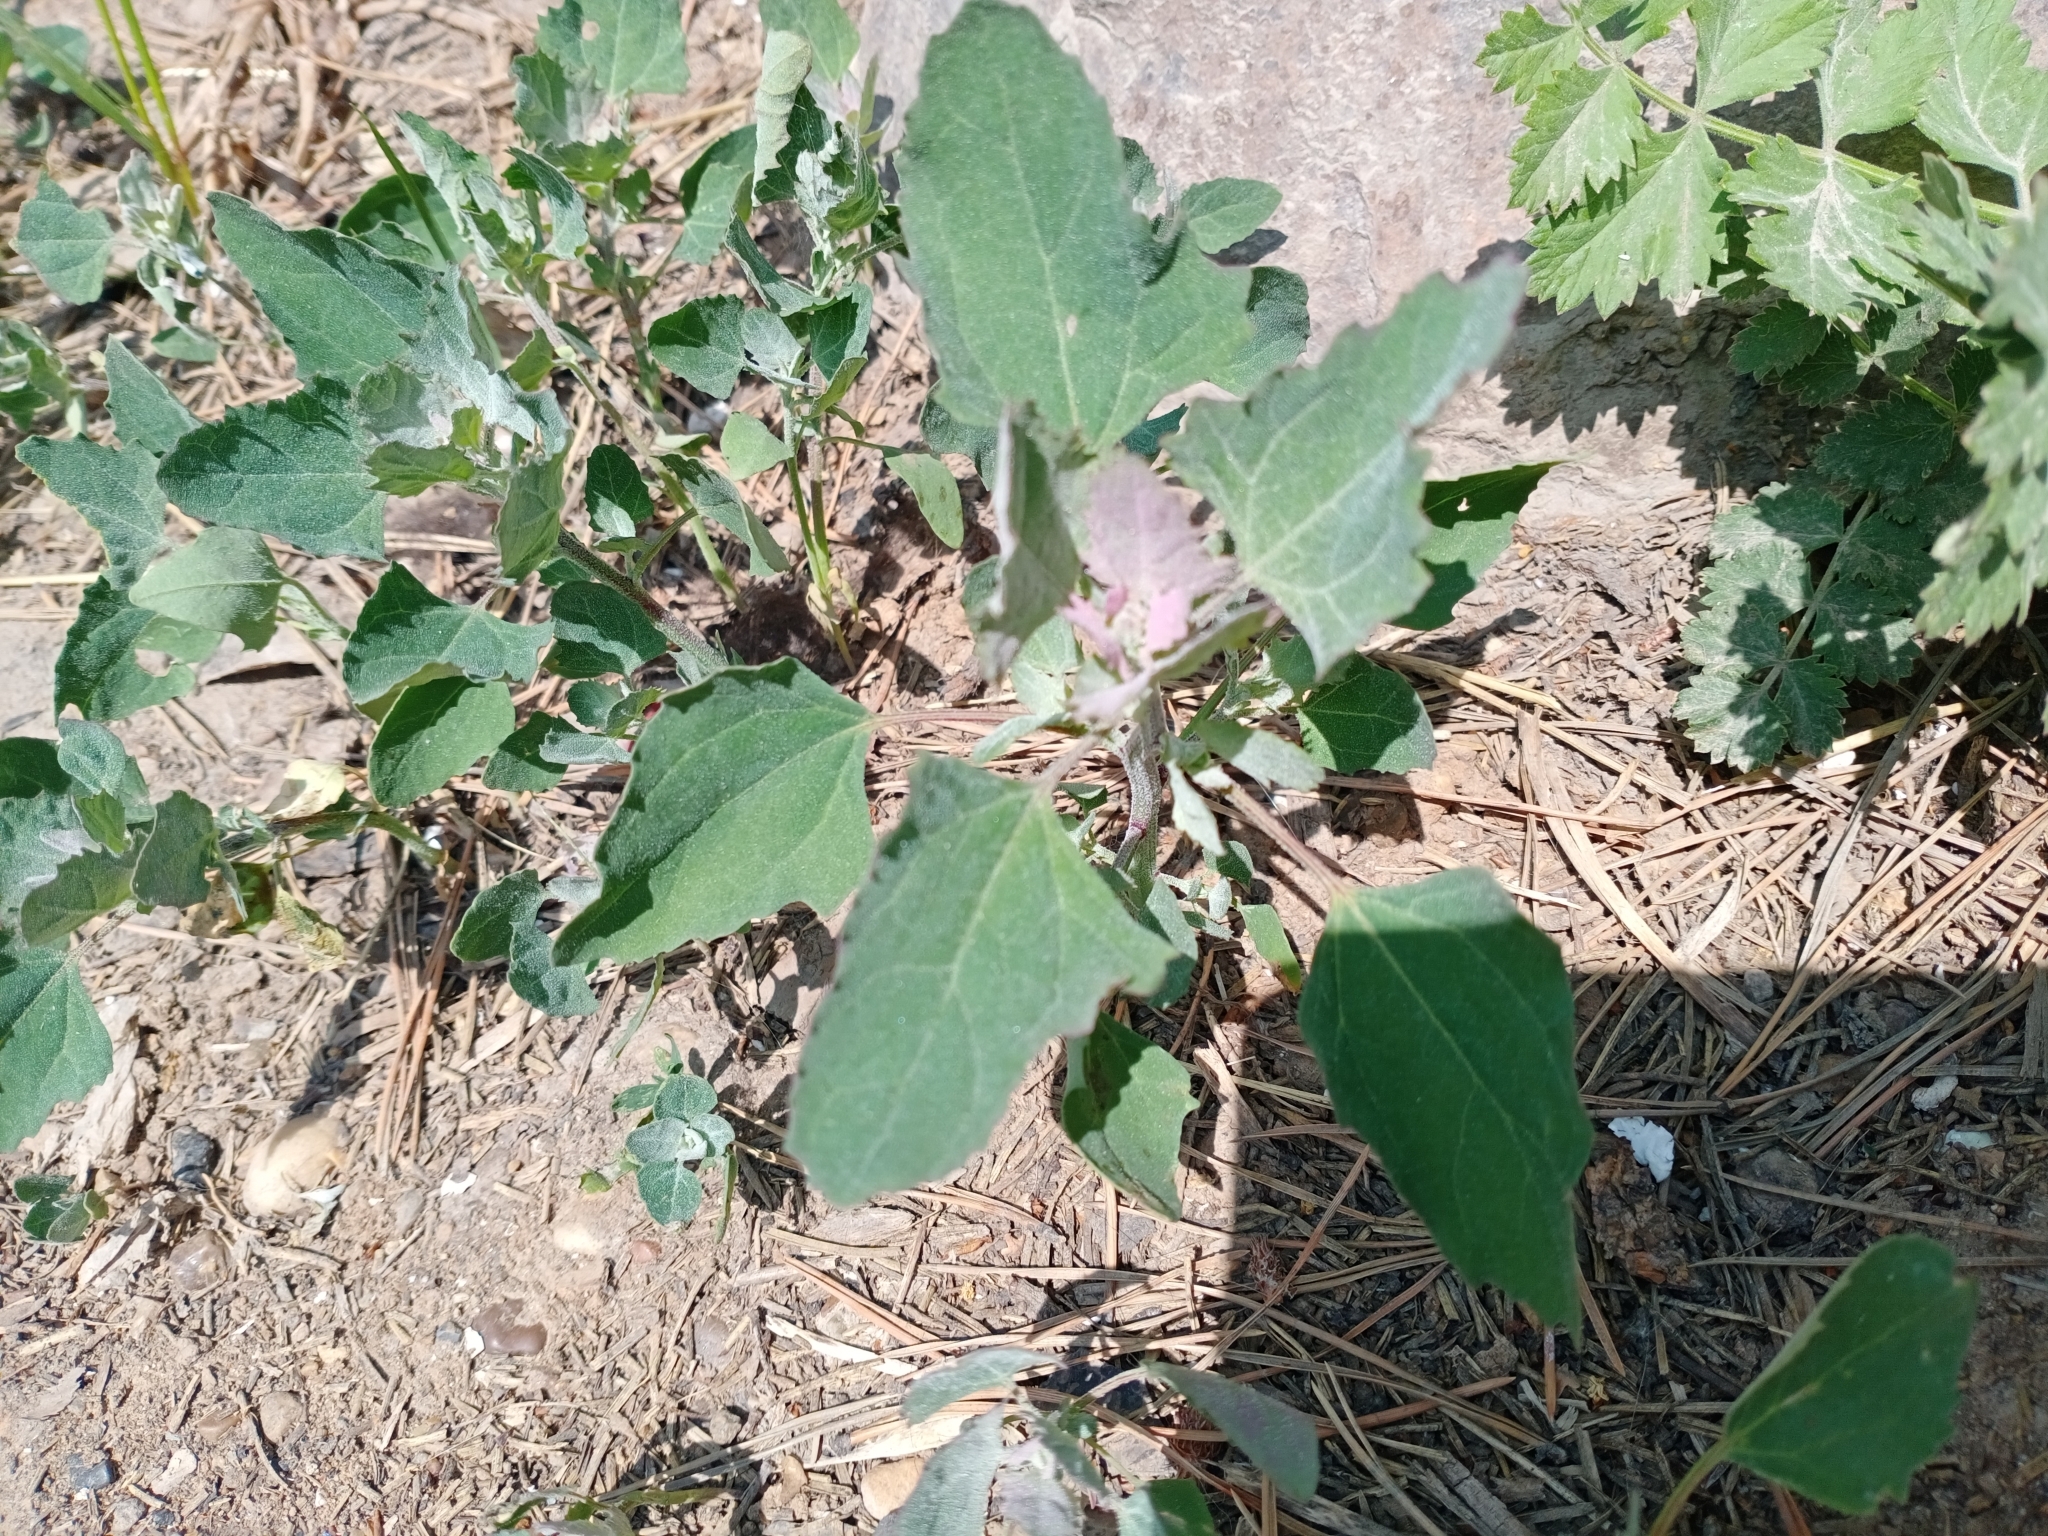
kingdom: Plantae
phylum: Tracheophyta
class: Magnoliopsida
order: Caryophyllales
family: Amaranthaceae
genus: Chenopodium
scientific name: Chenopodium album
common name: Fat-hen
